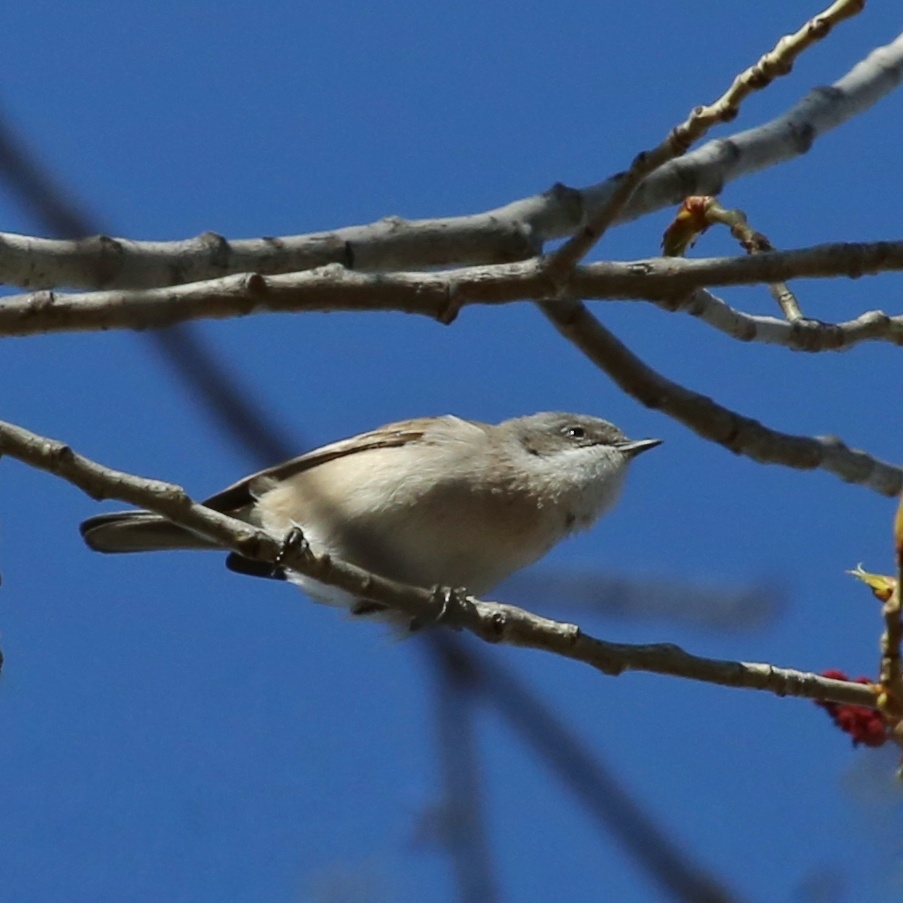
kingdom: Animalia
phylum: Chordata
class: Aves
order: Passeriformes
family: Sylviidae
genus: Sylvia
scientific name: Sylvia curruca
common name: Lesser whitethroat
